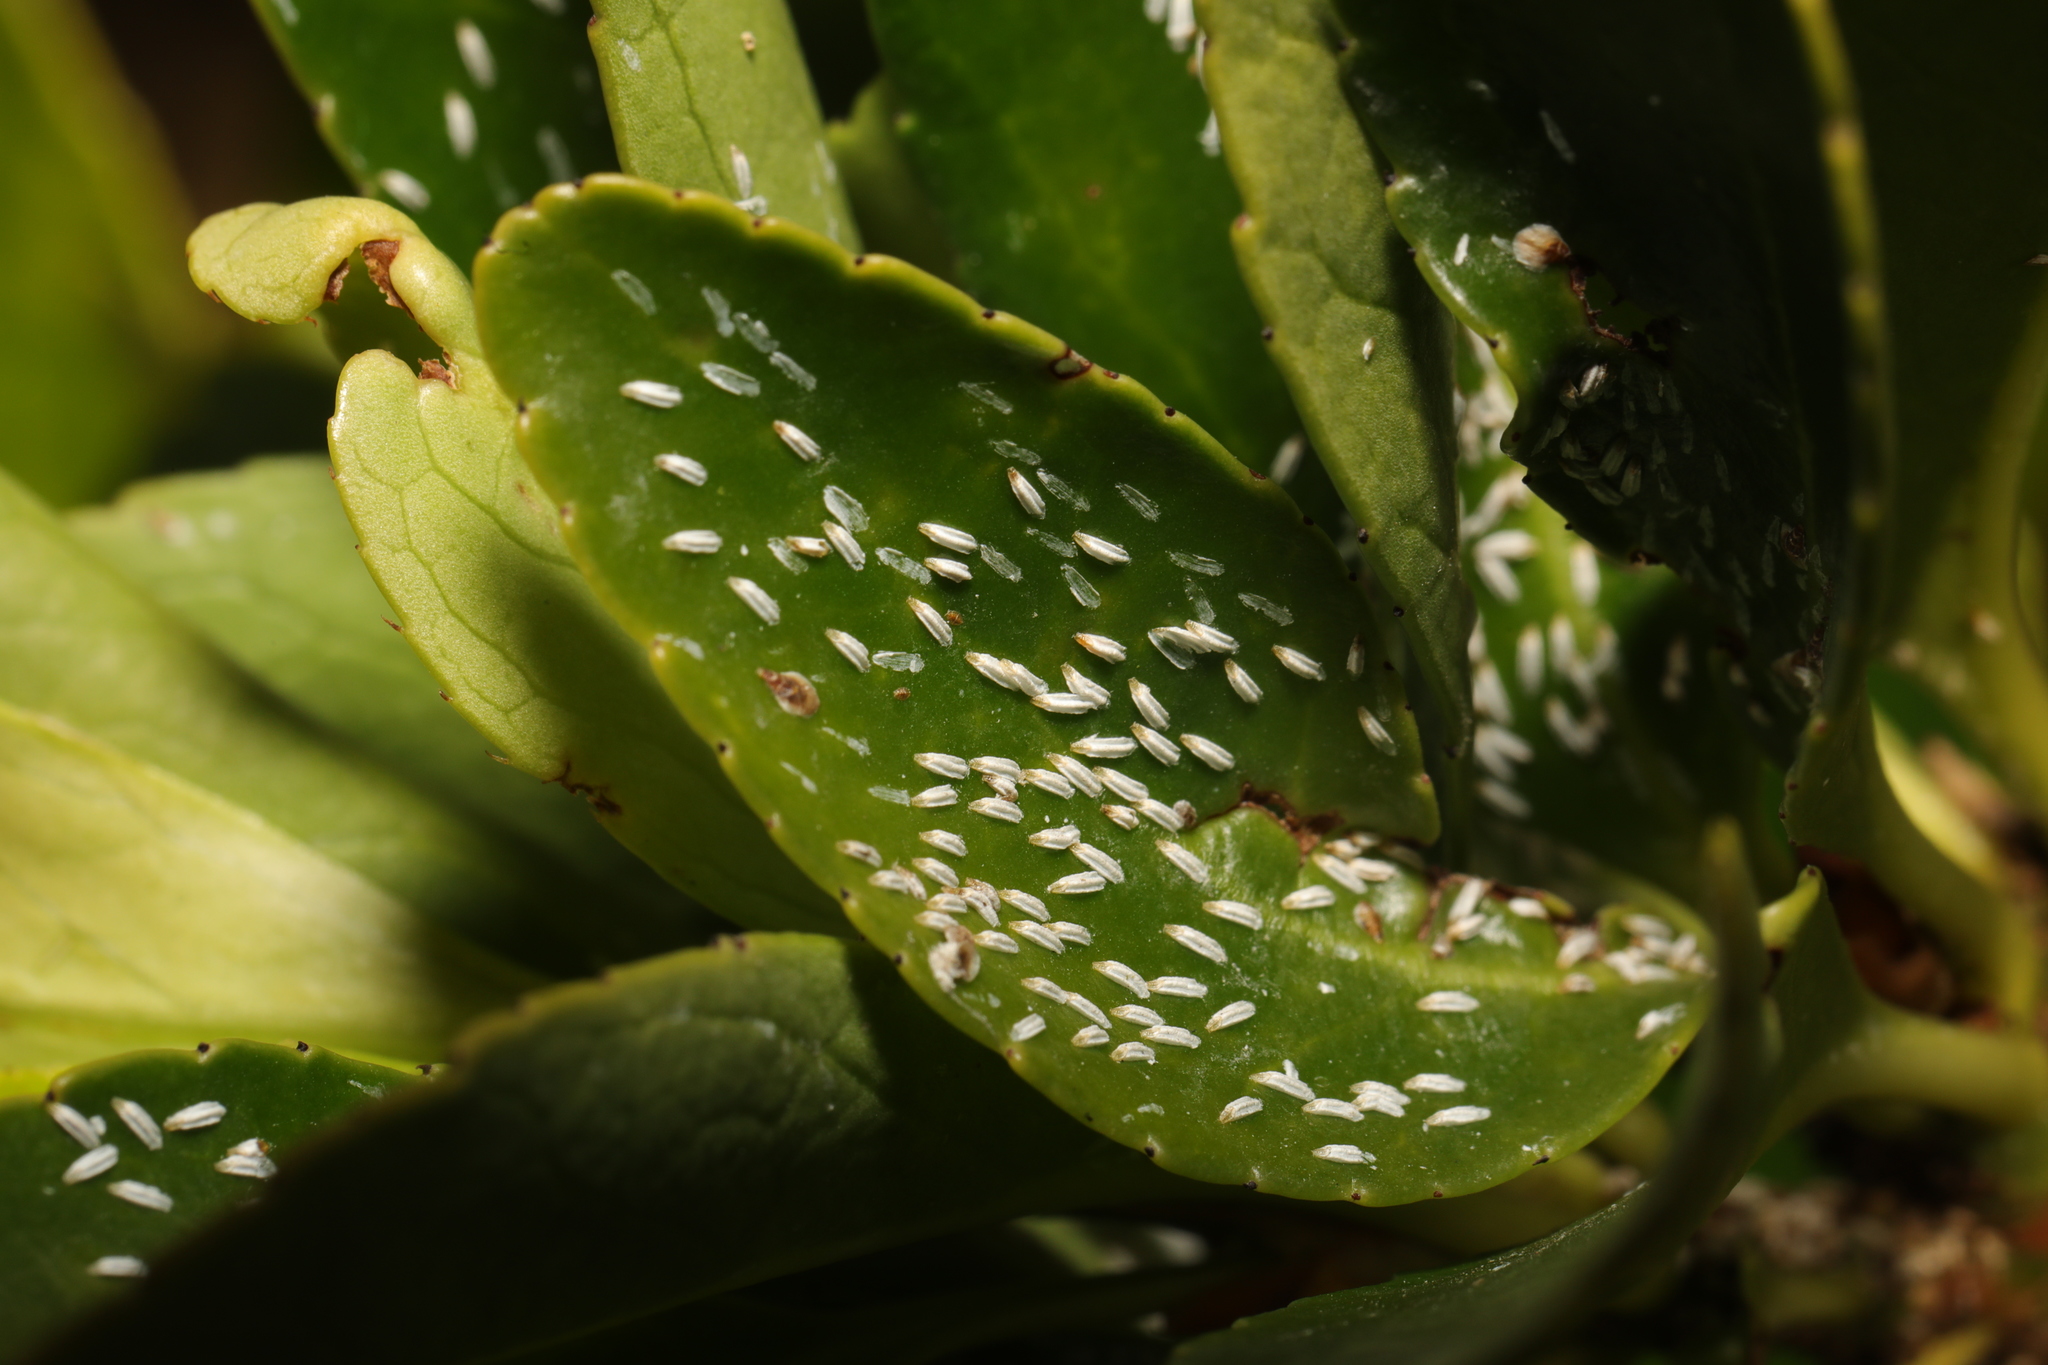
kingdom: Animalia
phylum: Arthropoda
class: Insecta
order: Hemiptera
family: Diaspididae
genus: Unaspis
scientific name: Unaspis euonymi
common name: Euonymus scale
